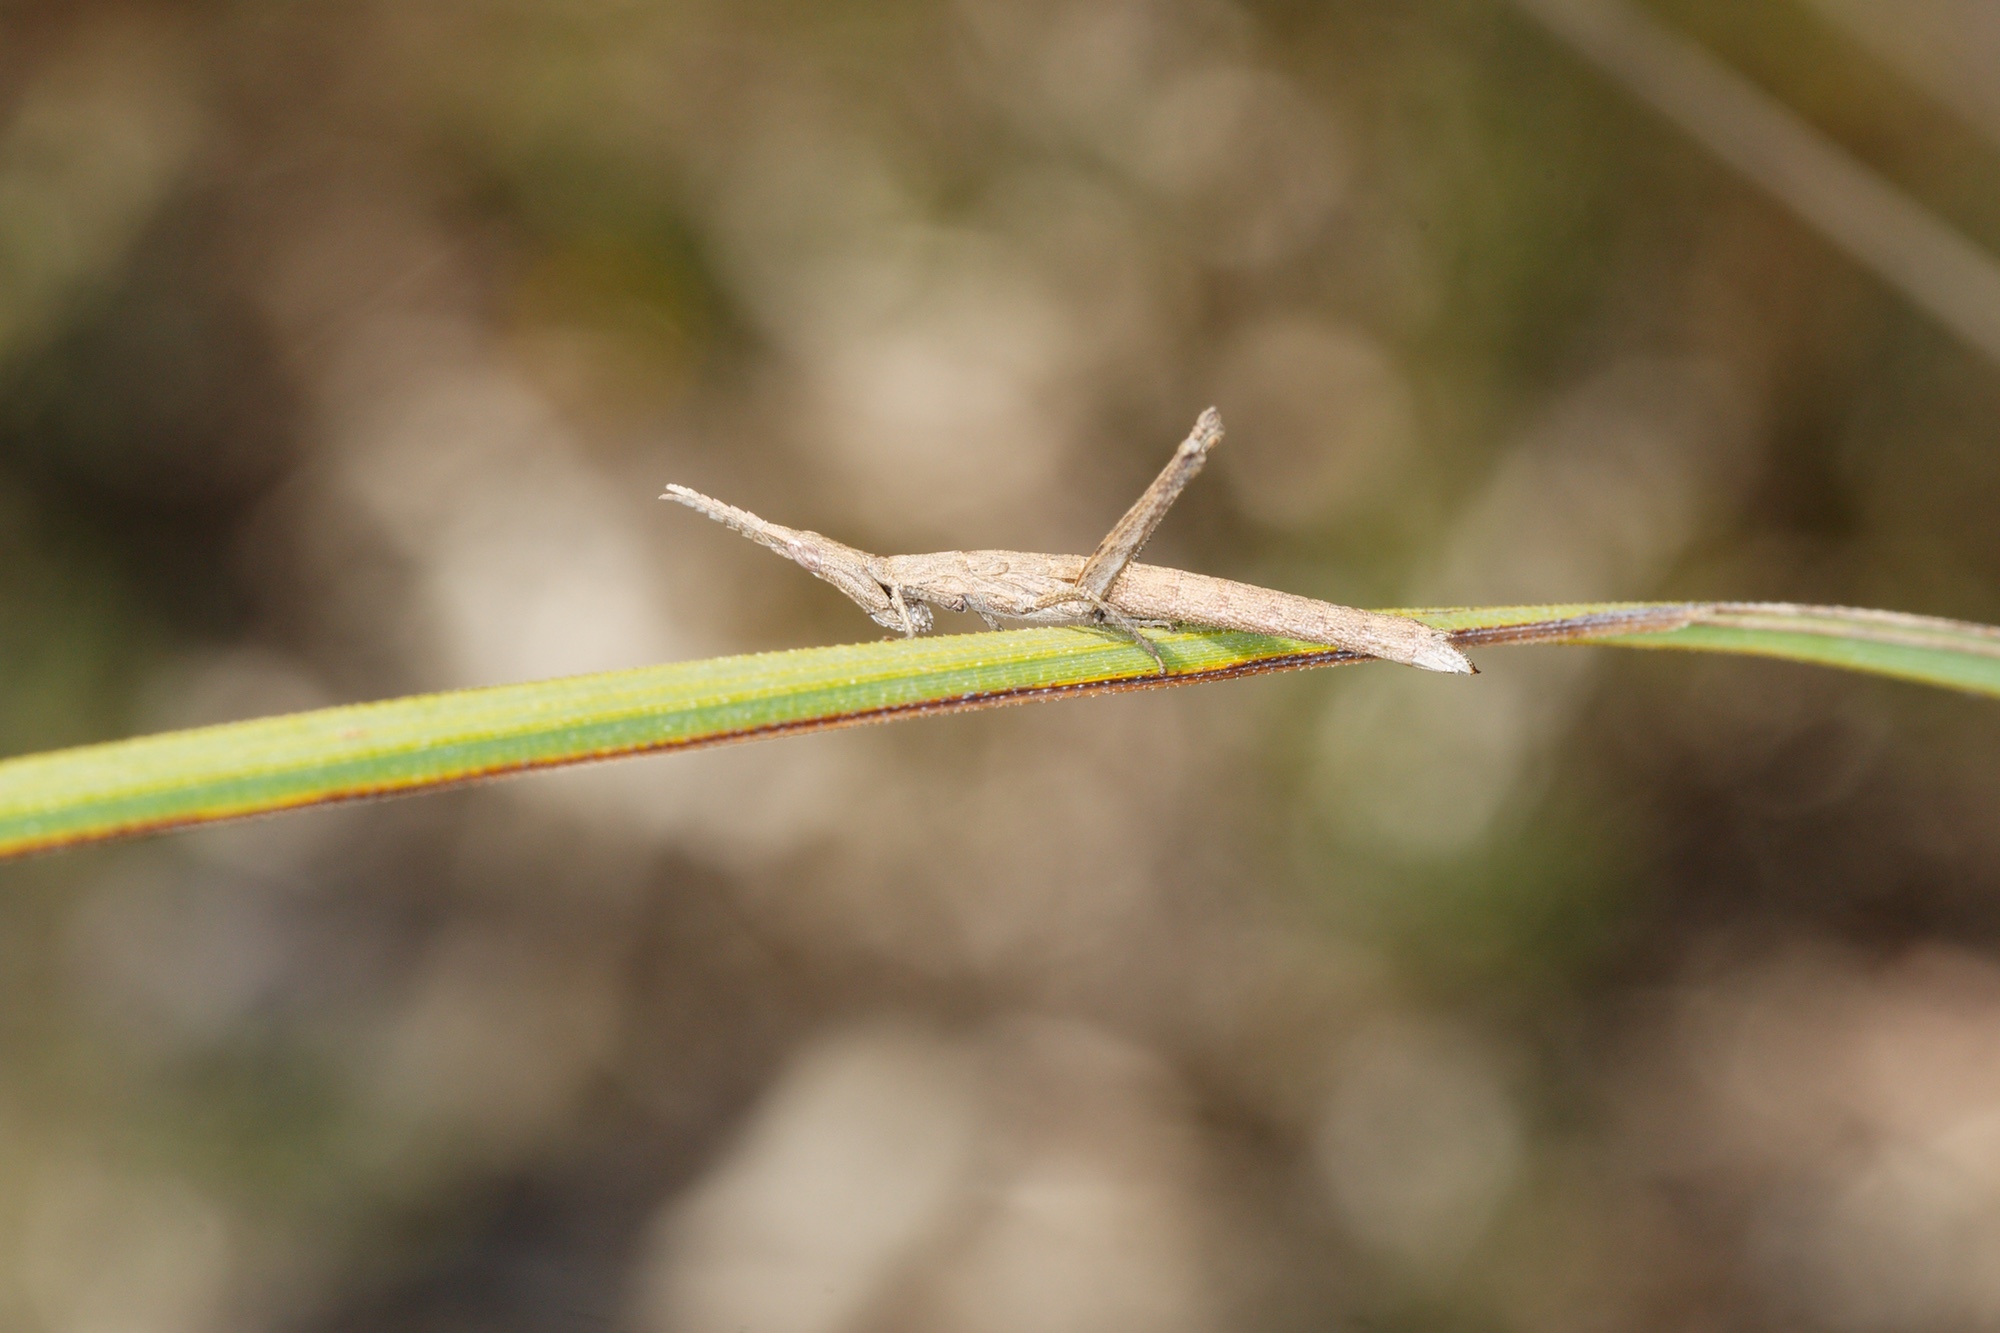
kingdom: Animalia
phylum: Arthropoda
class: Insecta
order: Orthoptera
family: Morabidae
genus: Vandiemenella
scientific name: Vandiemenella viatica
